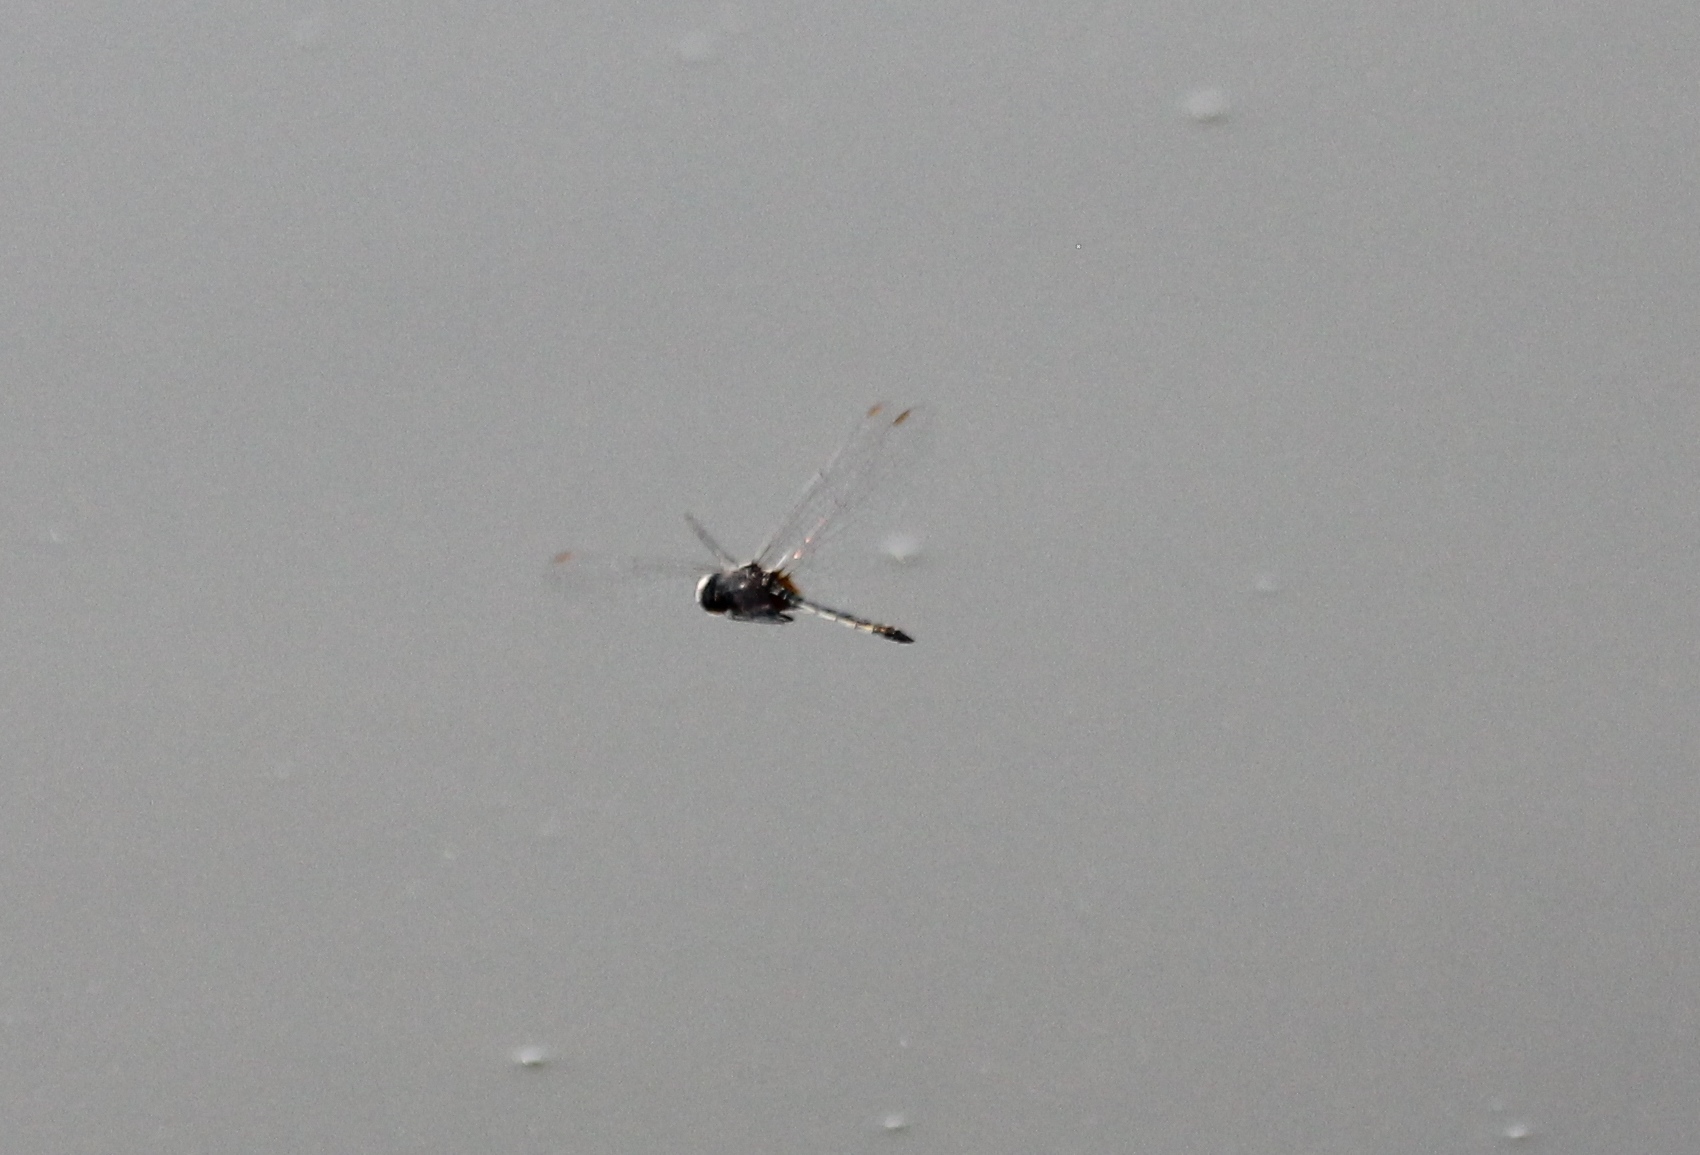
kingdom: Animalia
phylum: Arthropoda
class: Insecta
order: Odonata
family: Libellulidae
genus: Idiataphe
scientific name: Idiataphe cubensis
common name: Metallic pennant
